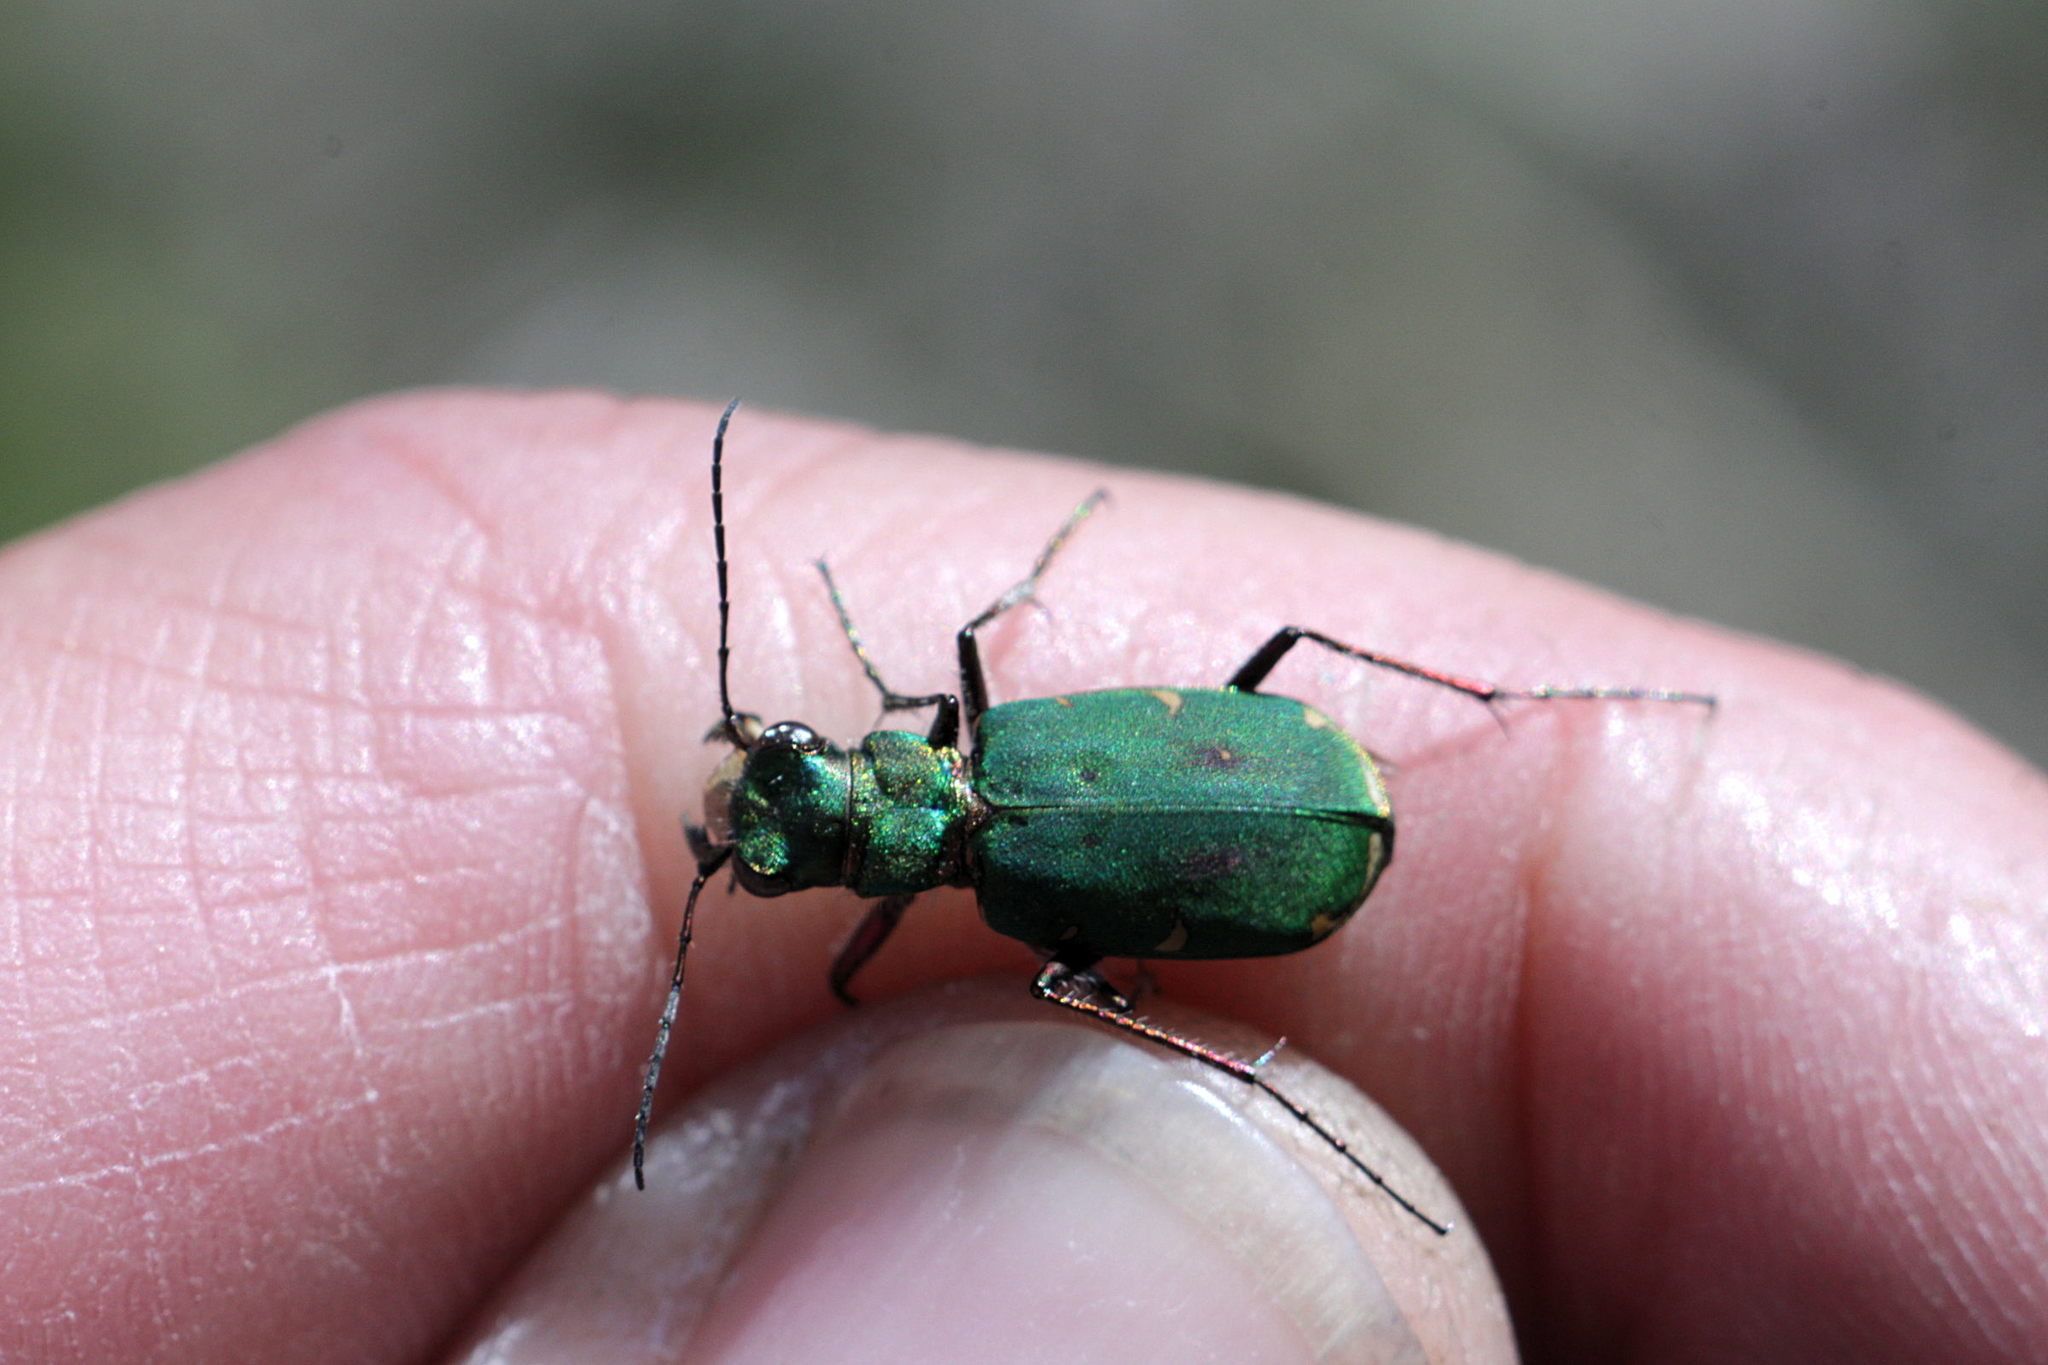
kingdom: Animalia
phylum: Arthropoda
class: Insecta
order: Coleoptera
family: Carabidae
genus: Cicindela
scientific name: Cicindela campestris
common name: Common tiger beetle
